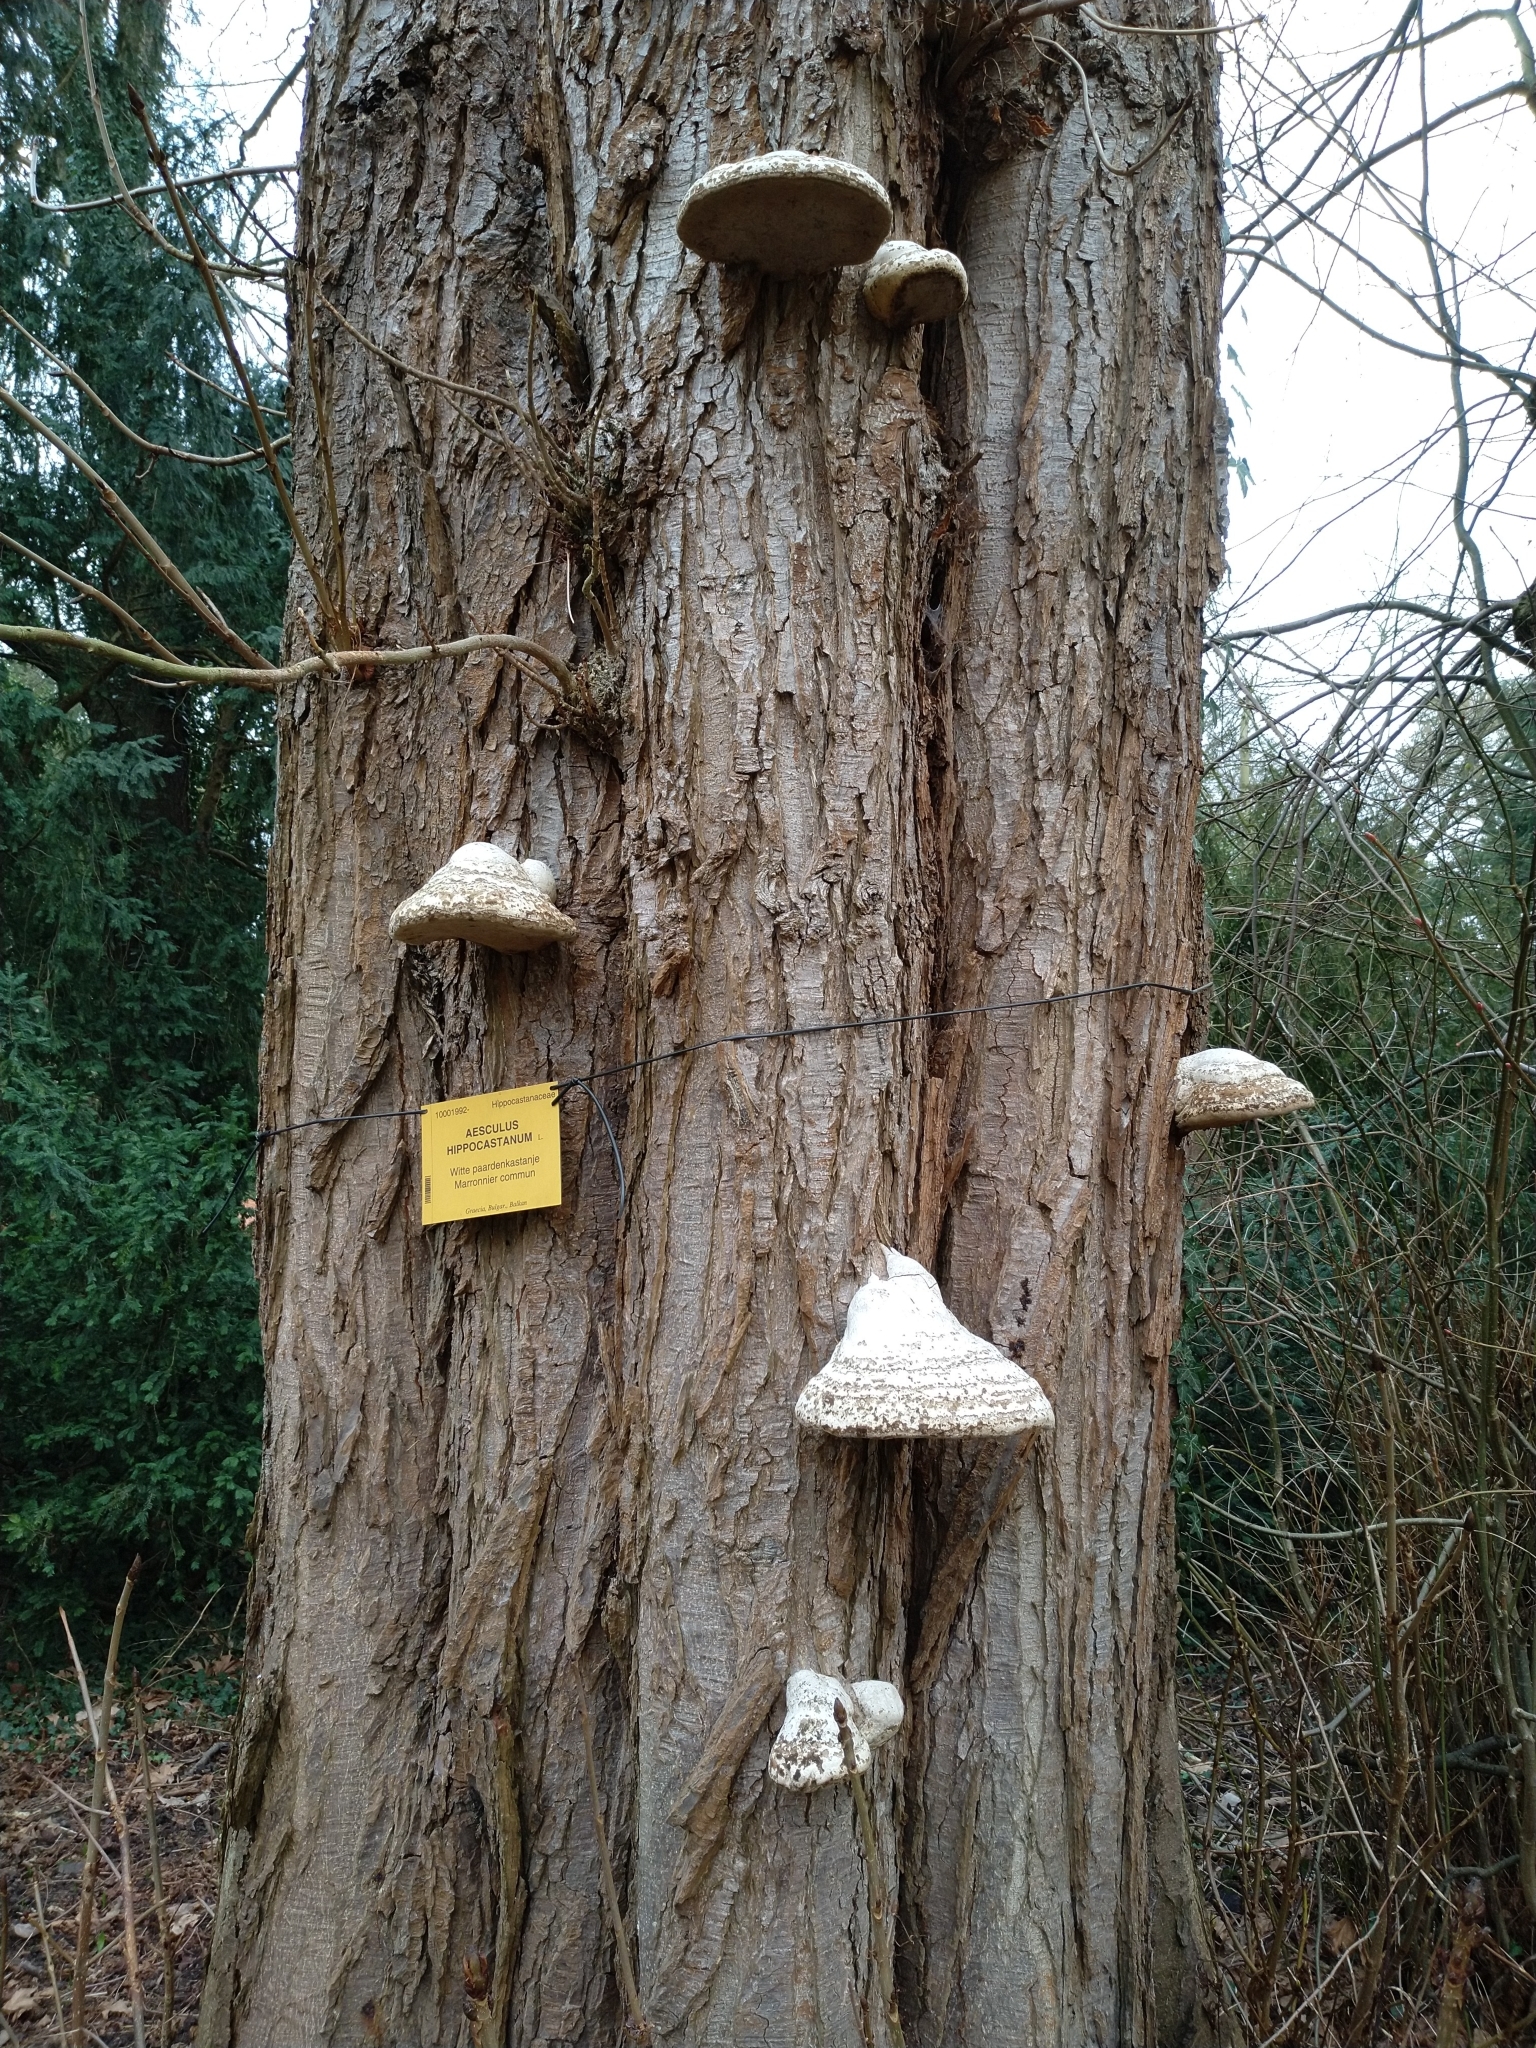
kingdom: Fungi
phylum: Basidiomycota
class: Agaricomycetes
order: Polyporales
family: Polyporaceae
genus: Fomes
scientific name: Fomes fomentarius
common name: Hoof fungus
